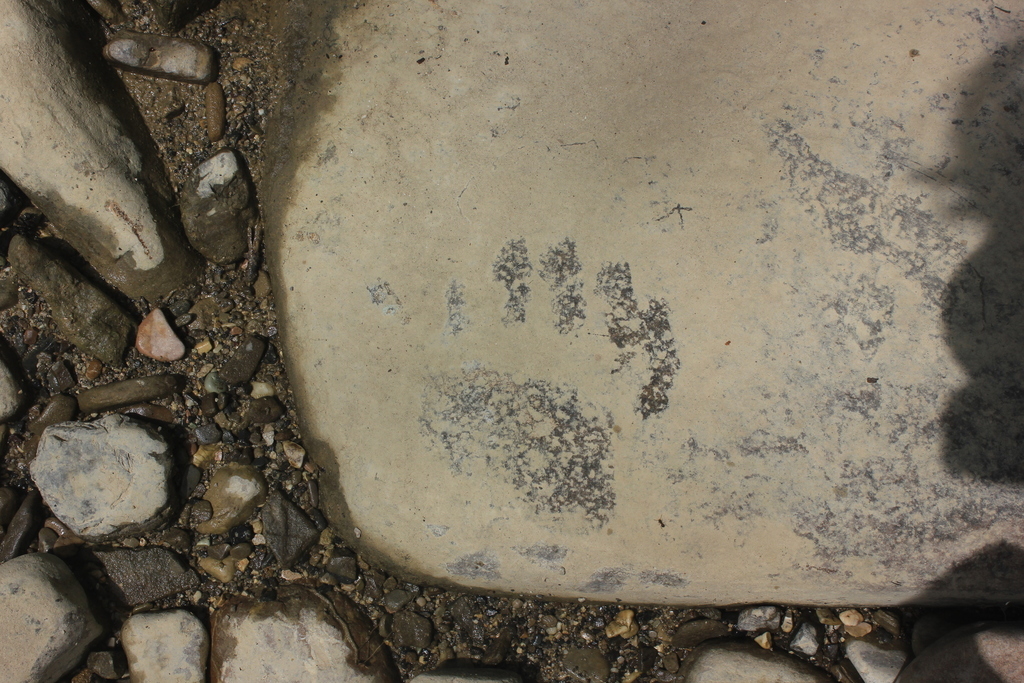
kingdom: Animalia
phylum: Chordata
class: Mammalia
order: Carnivora
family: Ursidae
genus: Ursus
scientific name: Ursus arctos
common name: Brown bear
